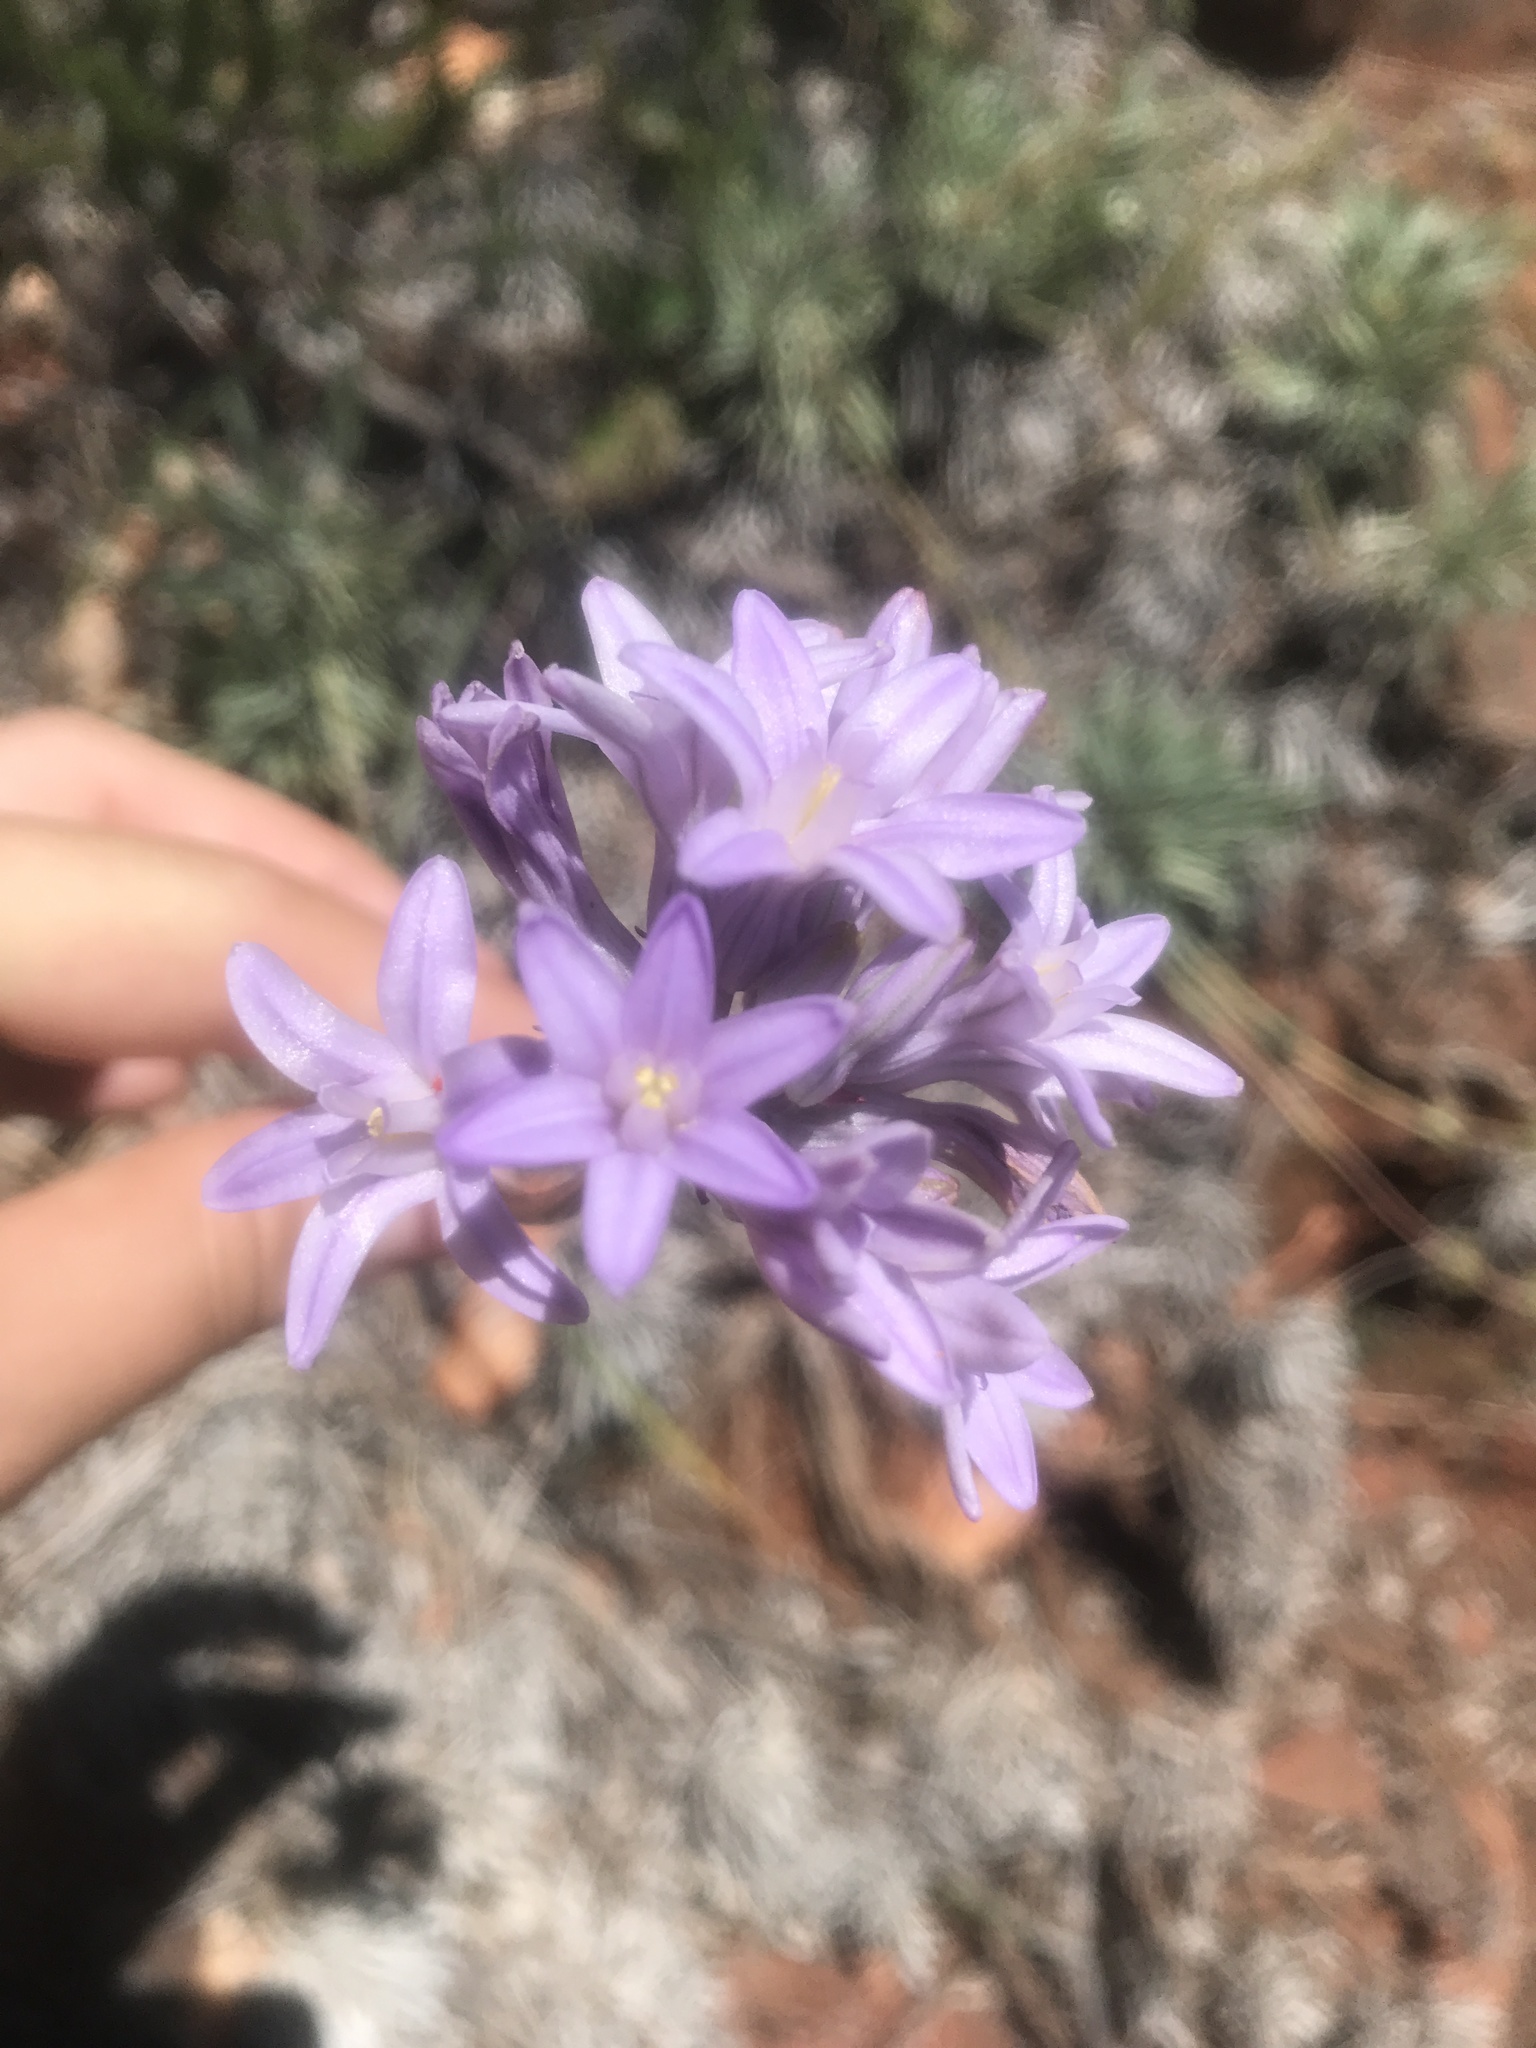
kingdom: Plantae
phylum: Tracheophyta
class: Liliopsida
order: Asparagales
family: Asparagaceae
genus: Dichelostemma
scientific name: Dichelostemma multiflorum
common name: Round-tooth ookow
